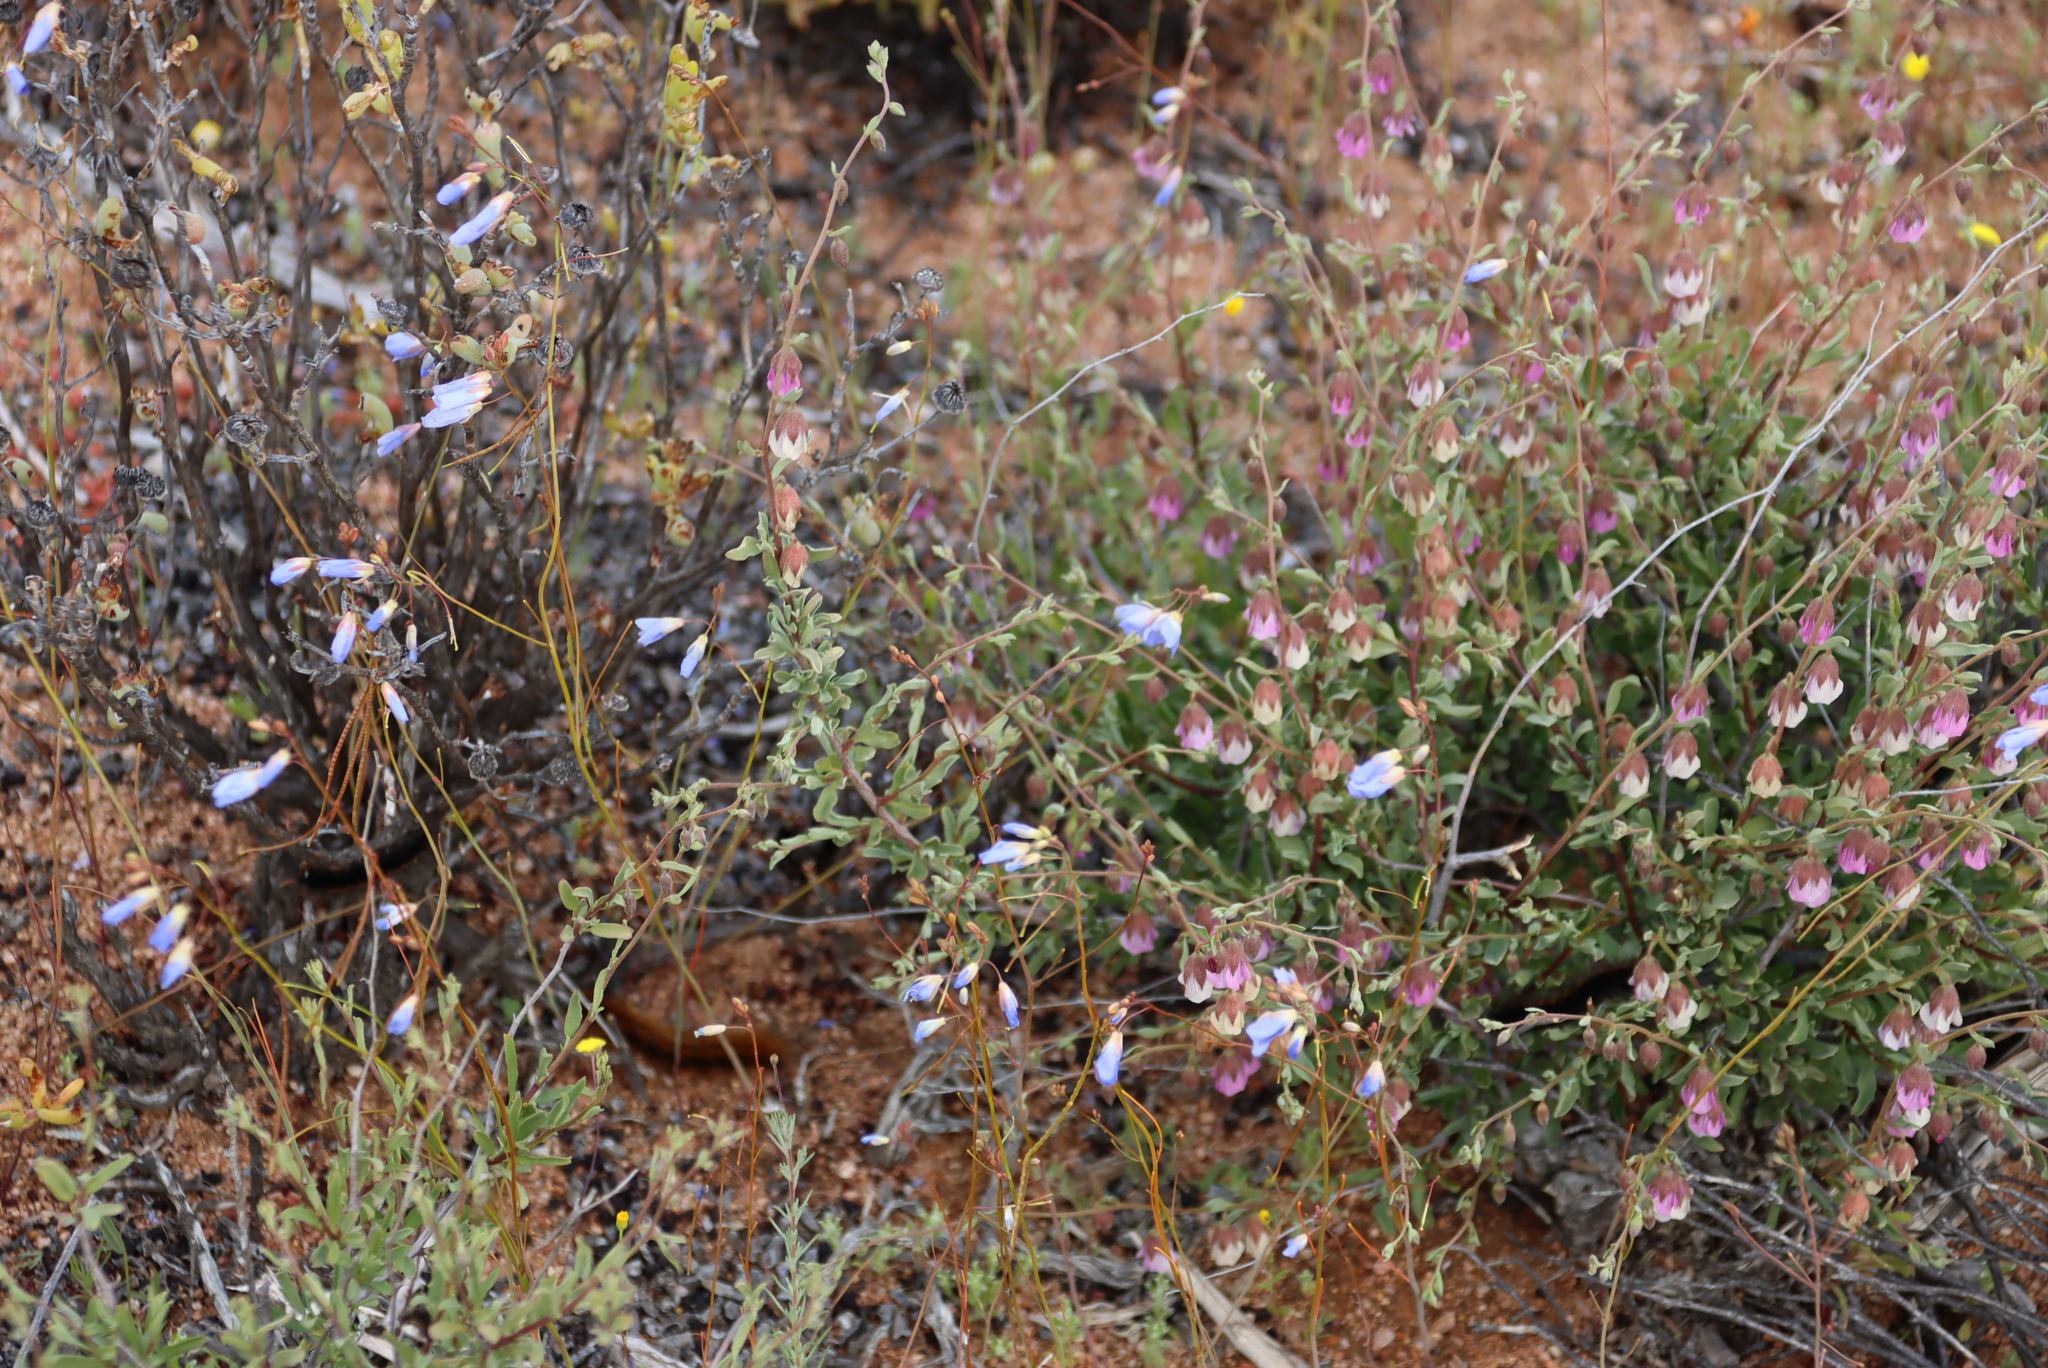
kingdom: Plantae
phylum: Tracheophyta
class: Magnoliopsida
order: Brassicales
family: Brassicaceae
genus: Heliophila
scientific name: Heliophila lactea
